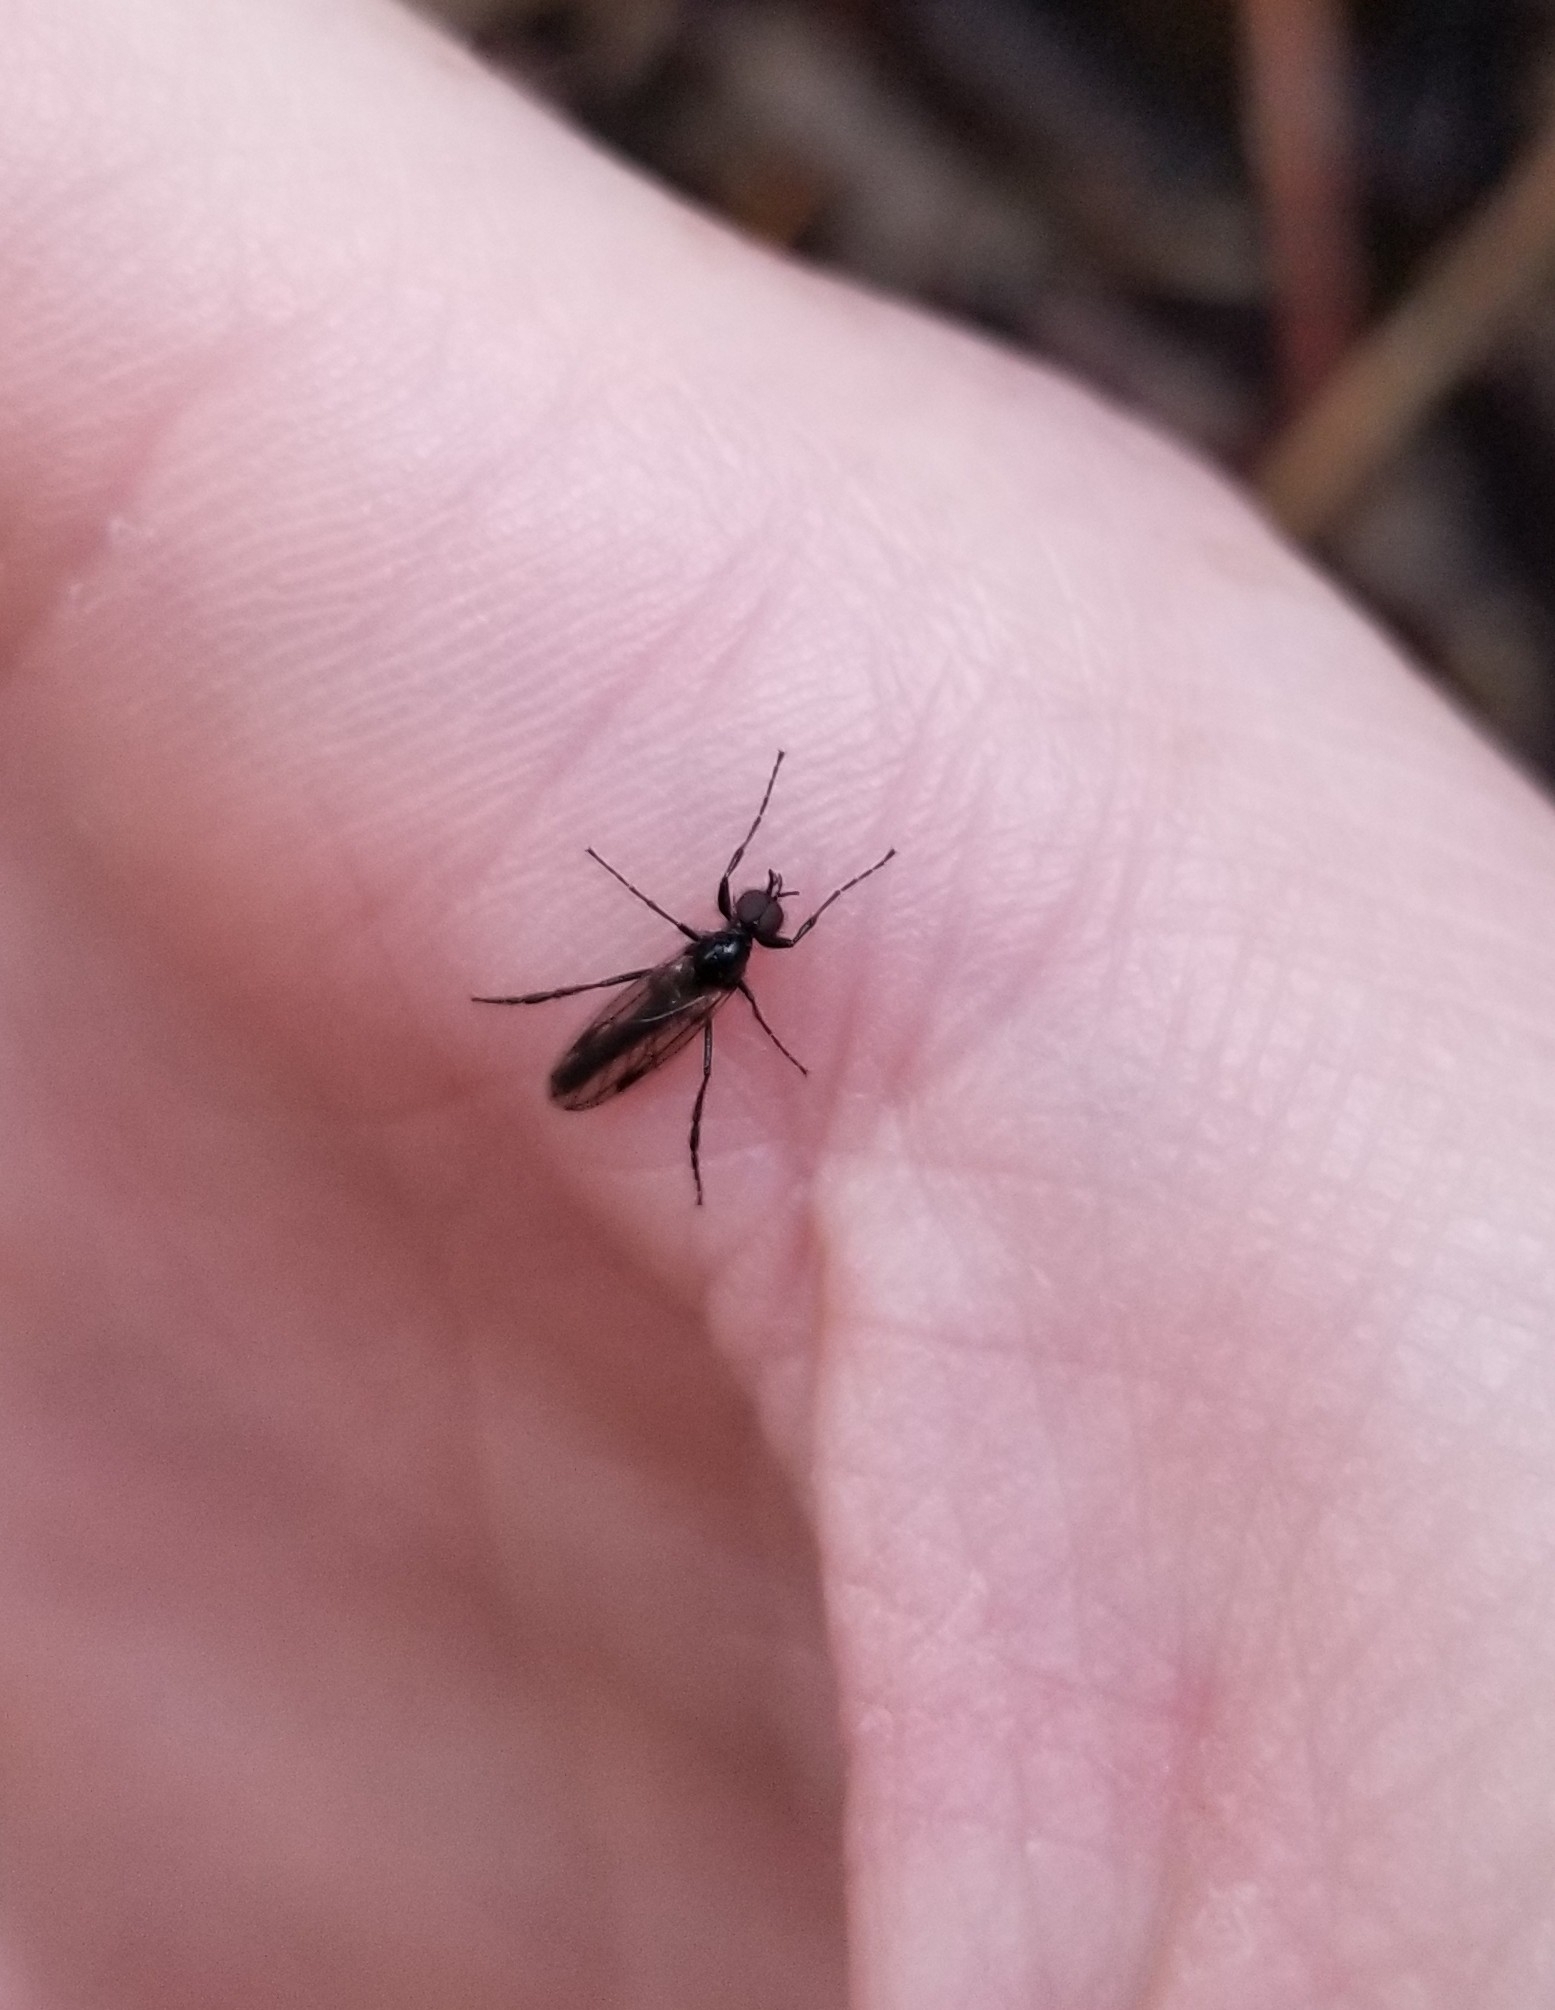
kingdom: Animalia
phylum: Arthropoda
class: Insecta
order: Diptera
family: Bibionidae
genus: Bibio
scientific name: Bibio slossonae
